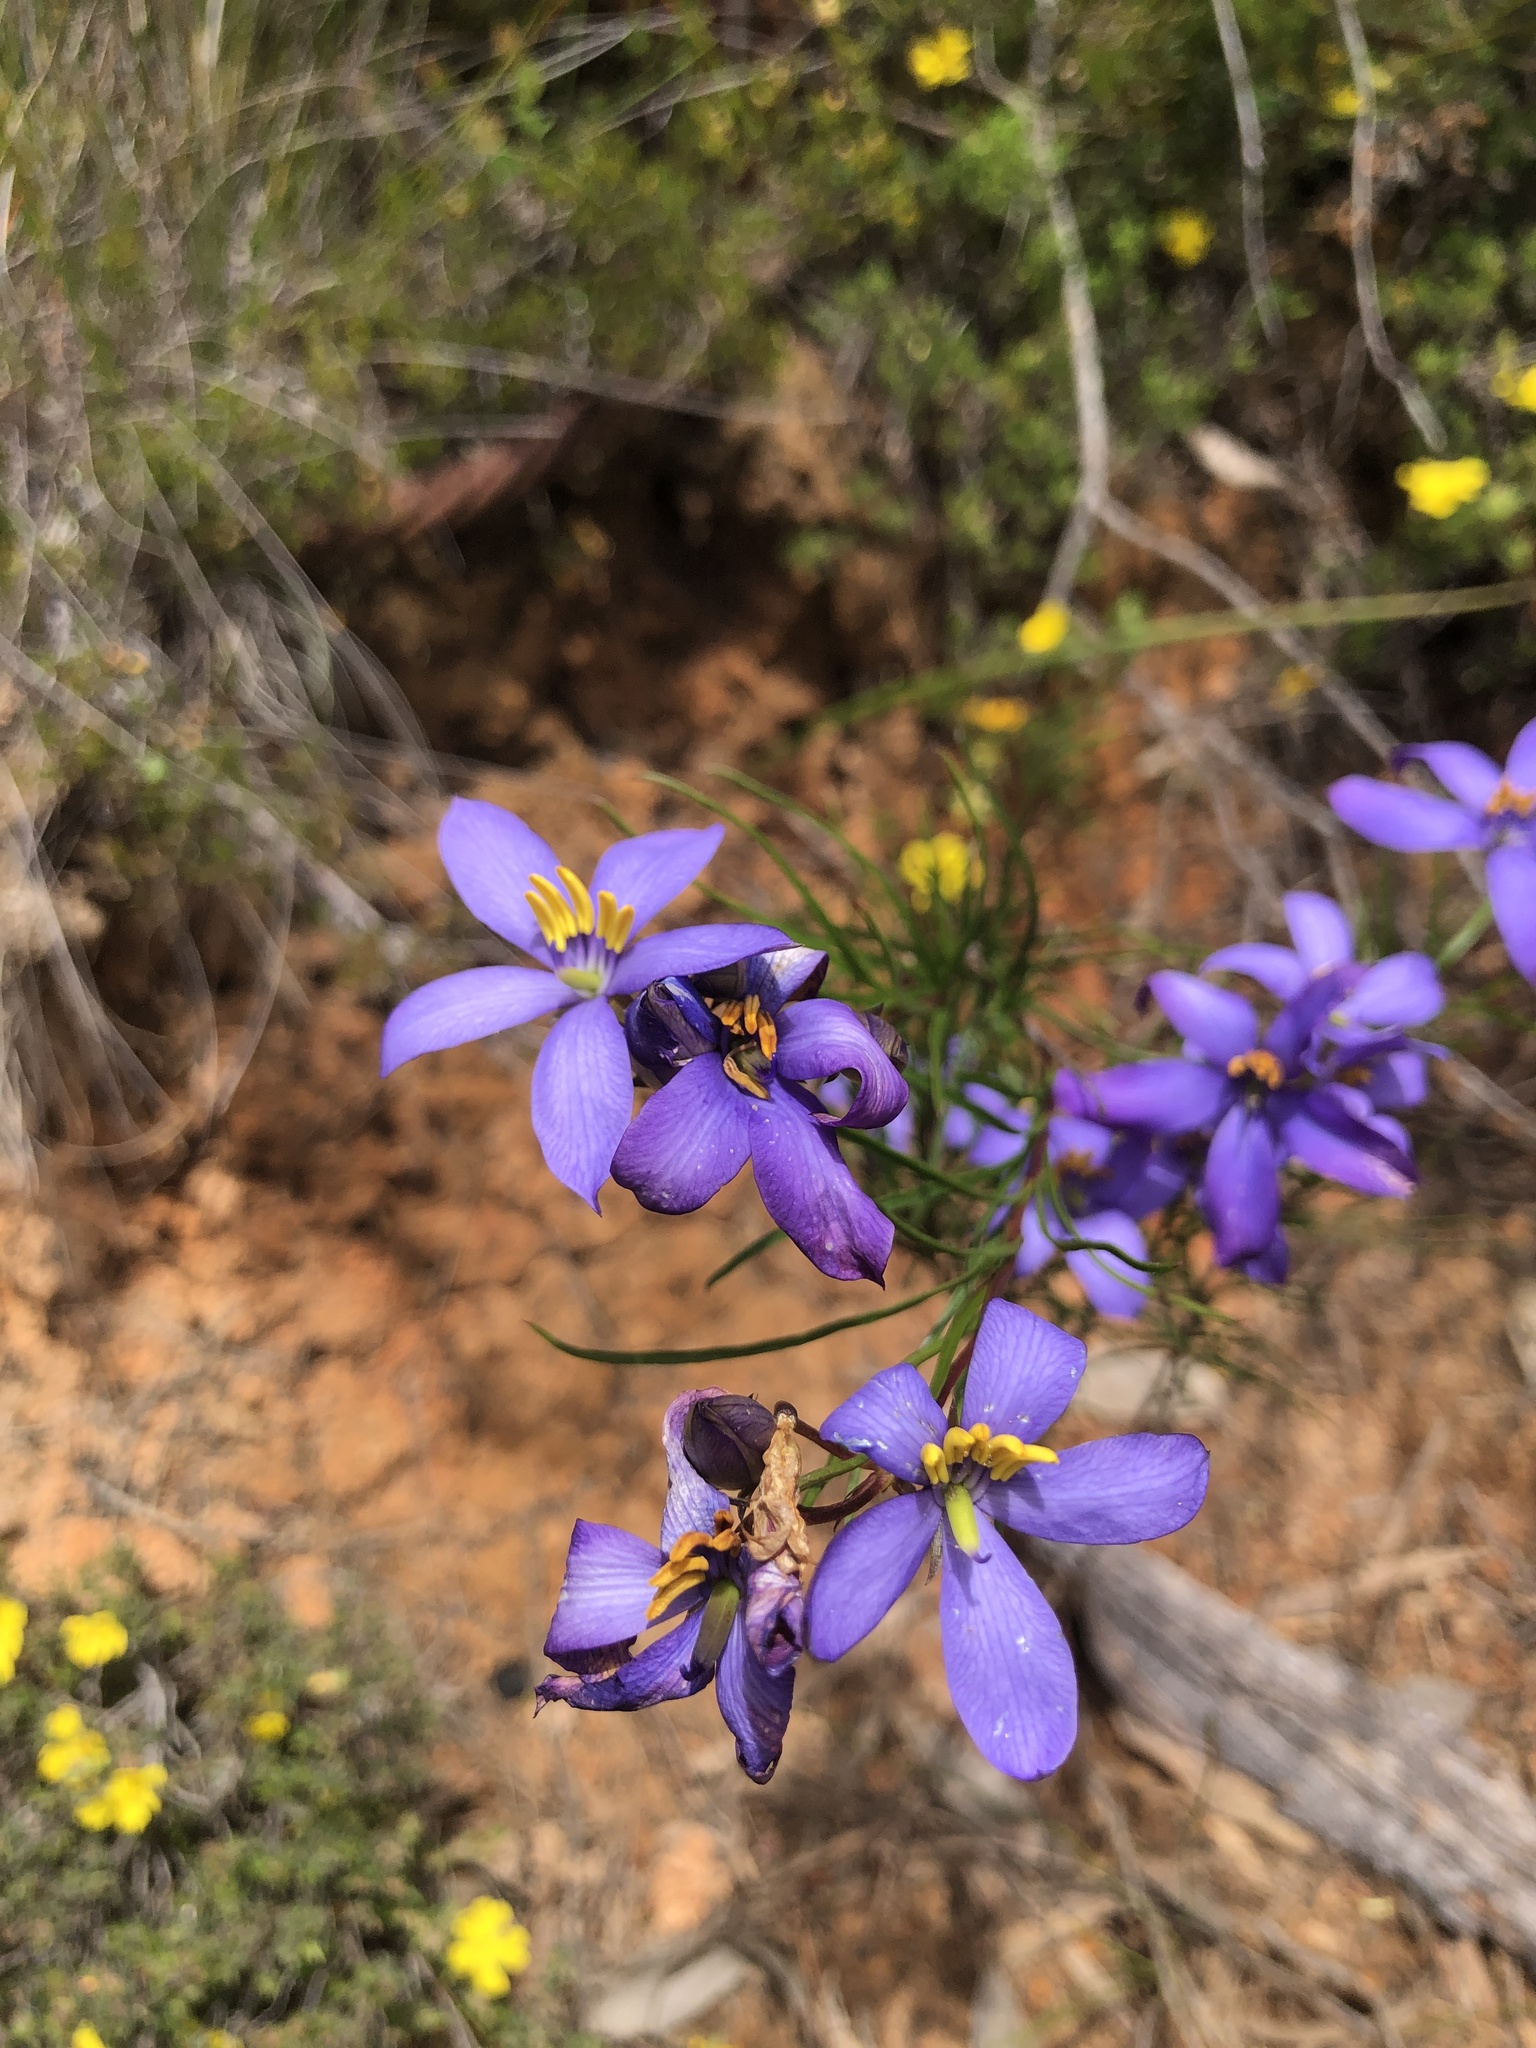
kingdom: Plantae
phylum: Tracheophyta
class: Magnoliopsida
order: Apiales
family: Pittosporaceae
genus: Cheiranthera
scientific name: Cheiranthera alternifolia
